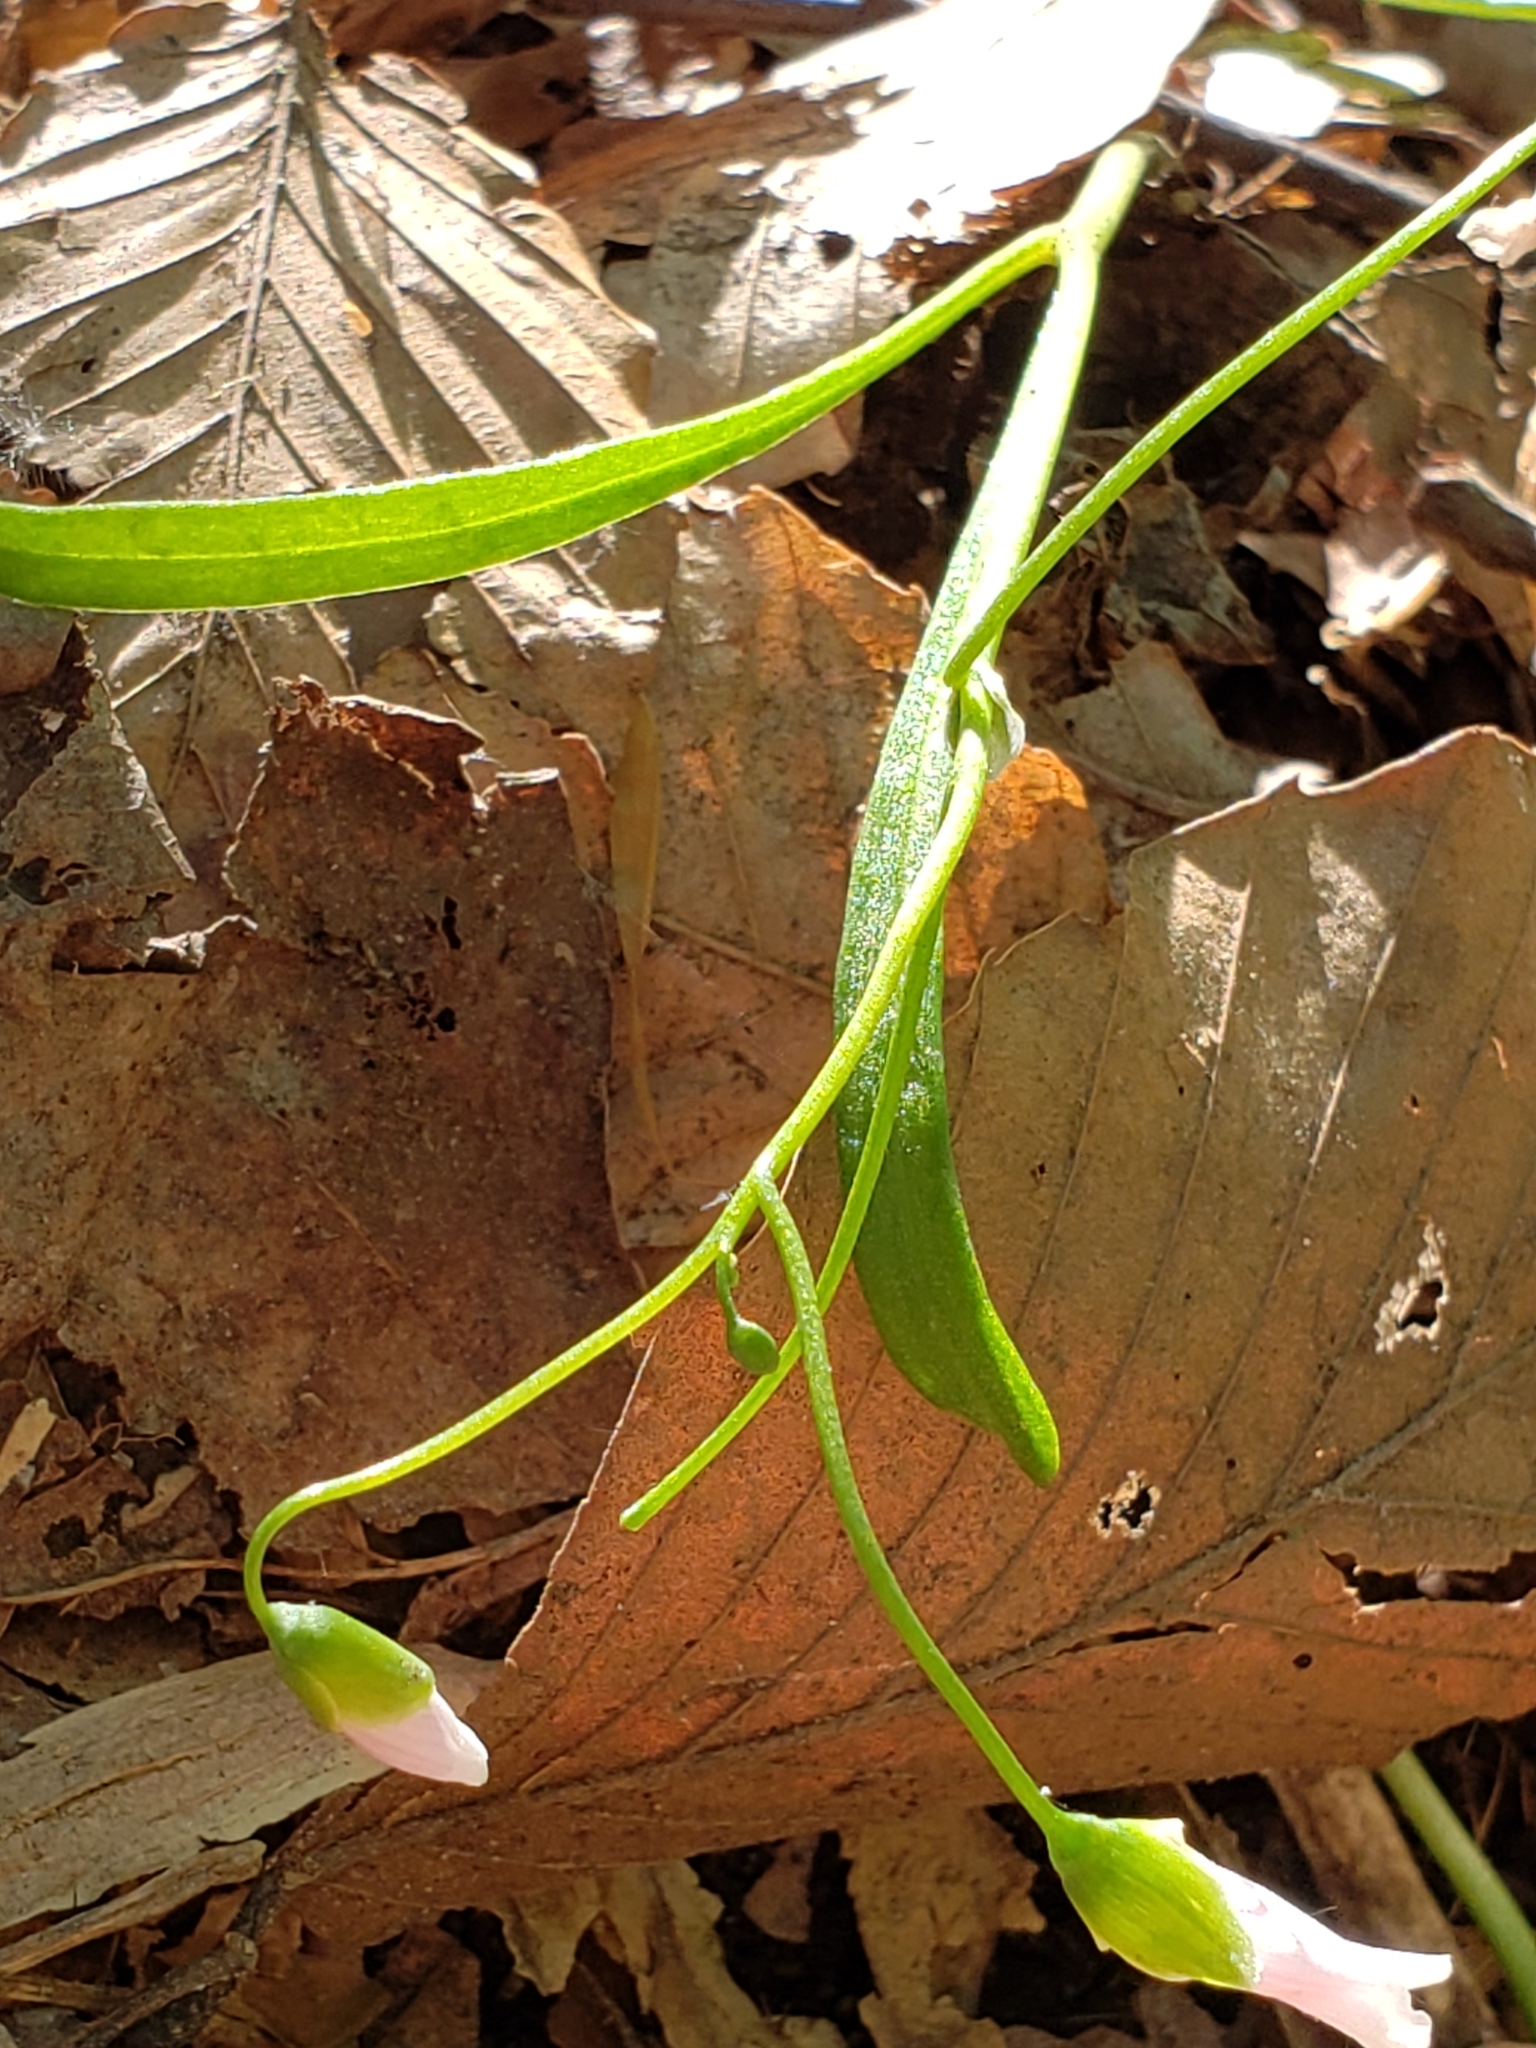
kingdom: Chromista
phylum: Oomycota
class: Peronosporea
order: Peronosporales
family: Peronosporaceae
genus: Peronospora
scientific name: Peronospora
